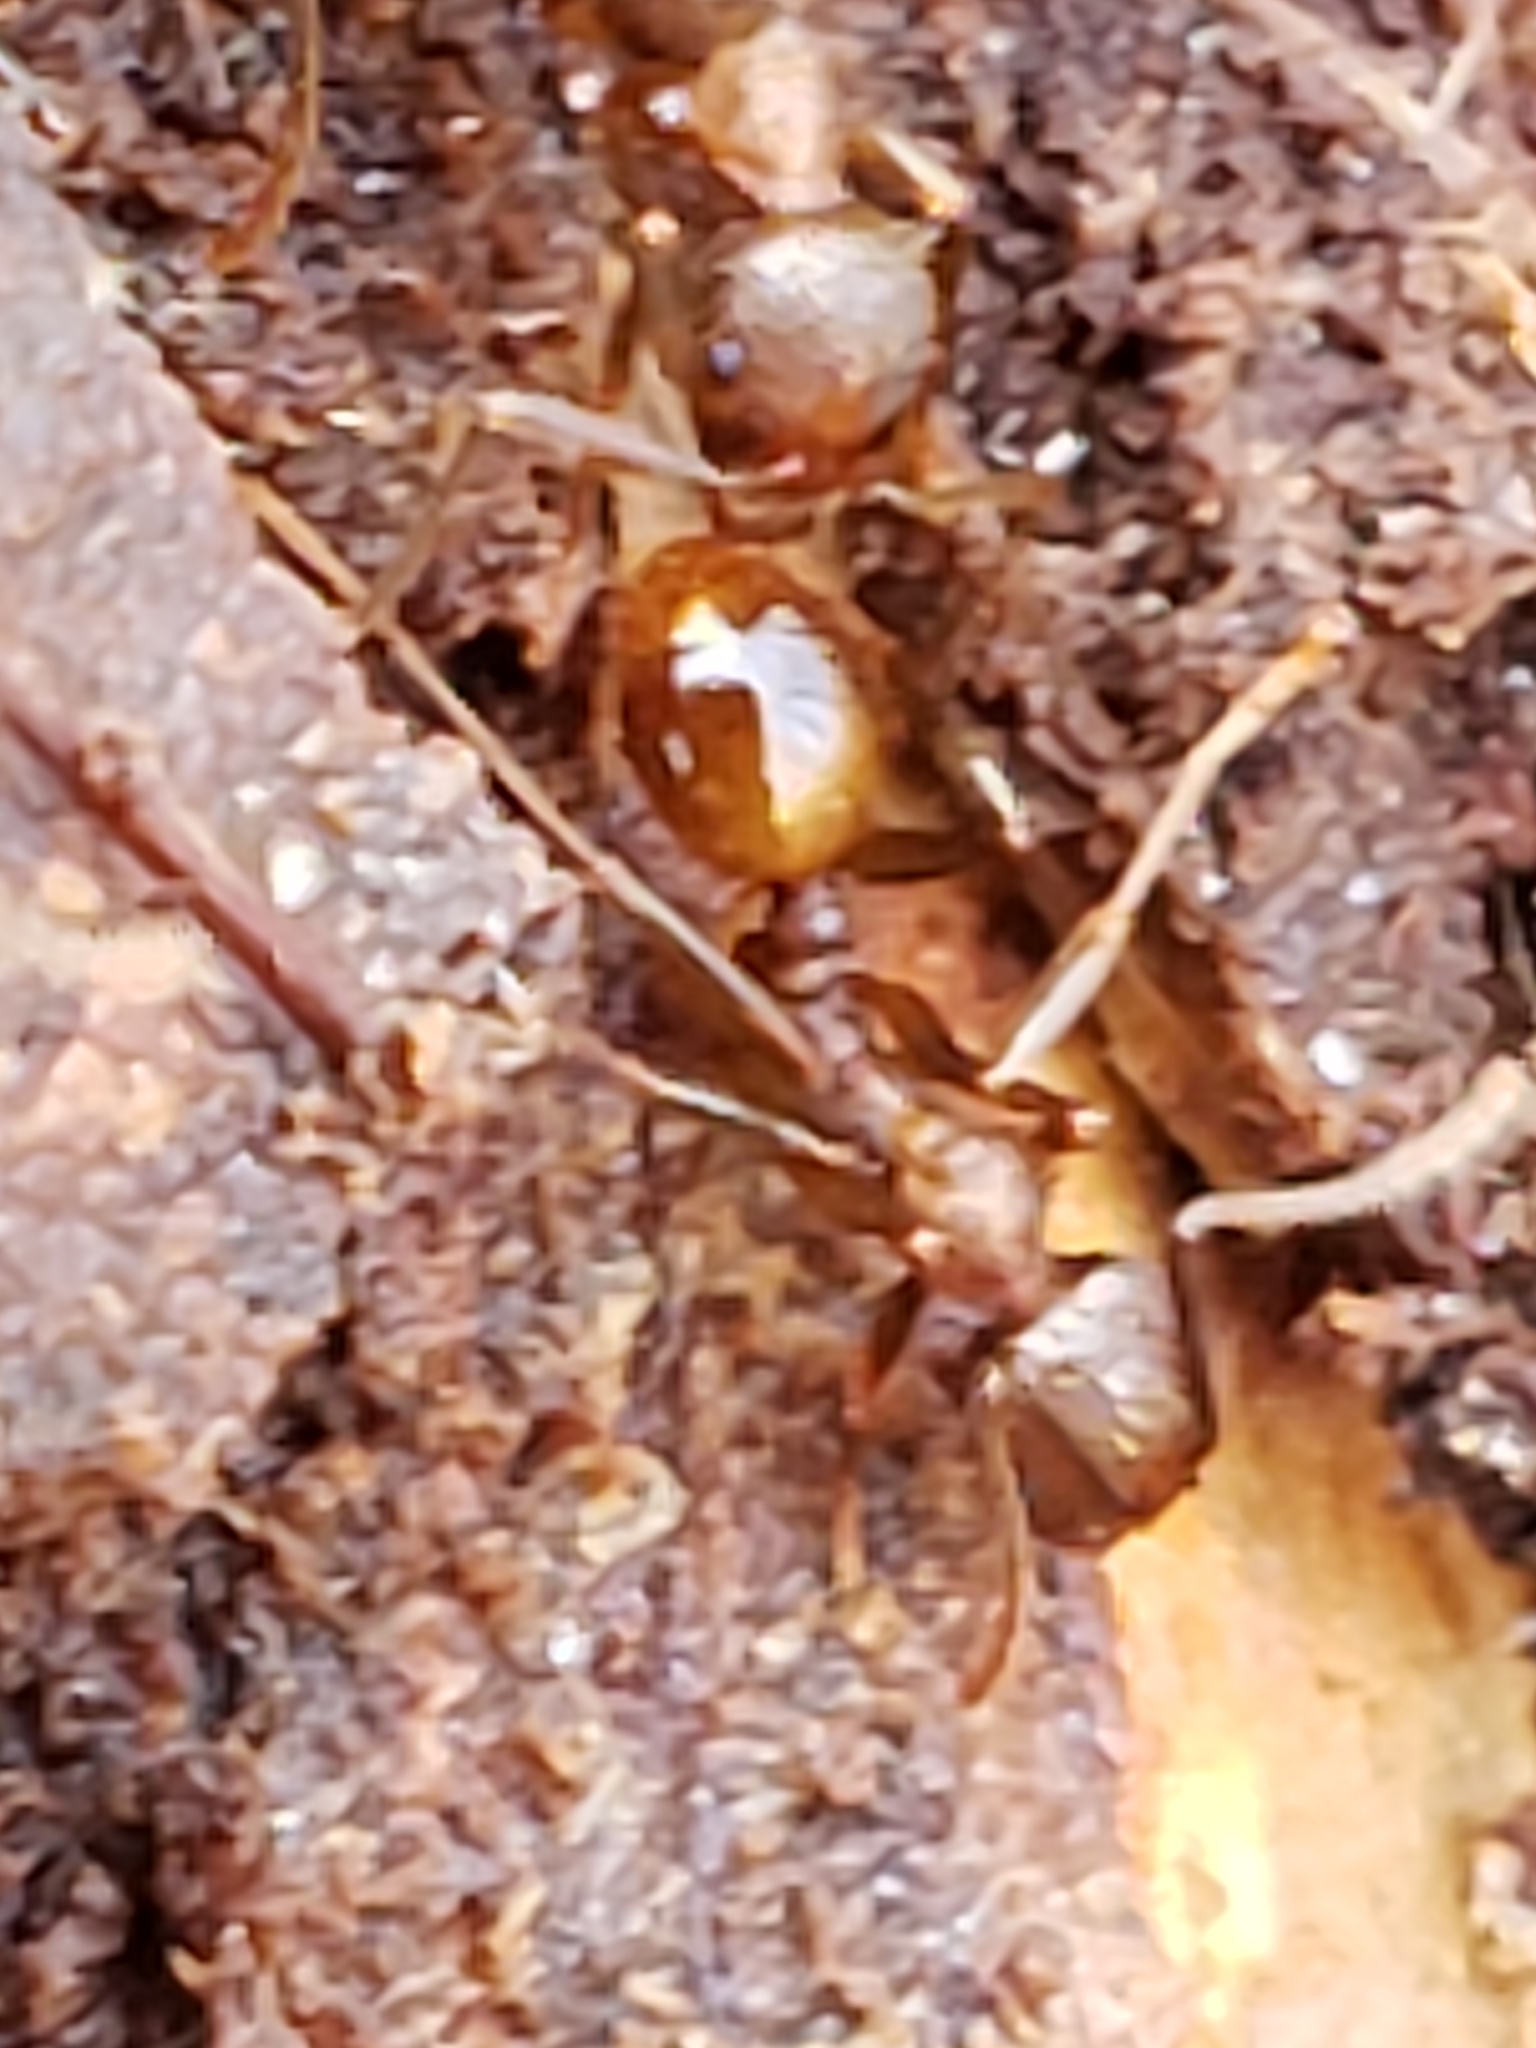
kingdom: Animalia
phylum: Arthropoda
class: Insecta
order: Hymenoptera
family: Formicidae
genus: Aphaenogaster
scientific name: Aphaenogaster fulva
